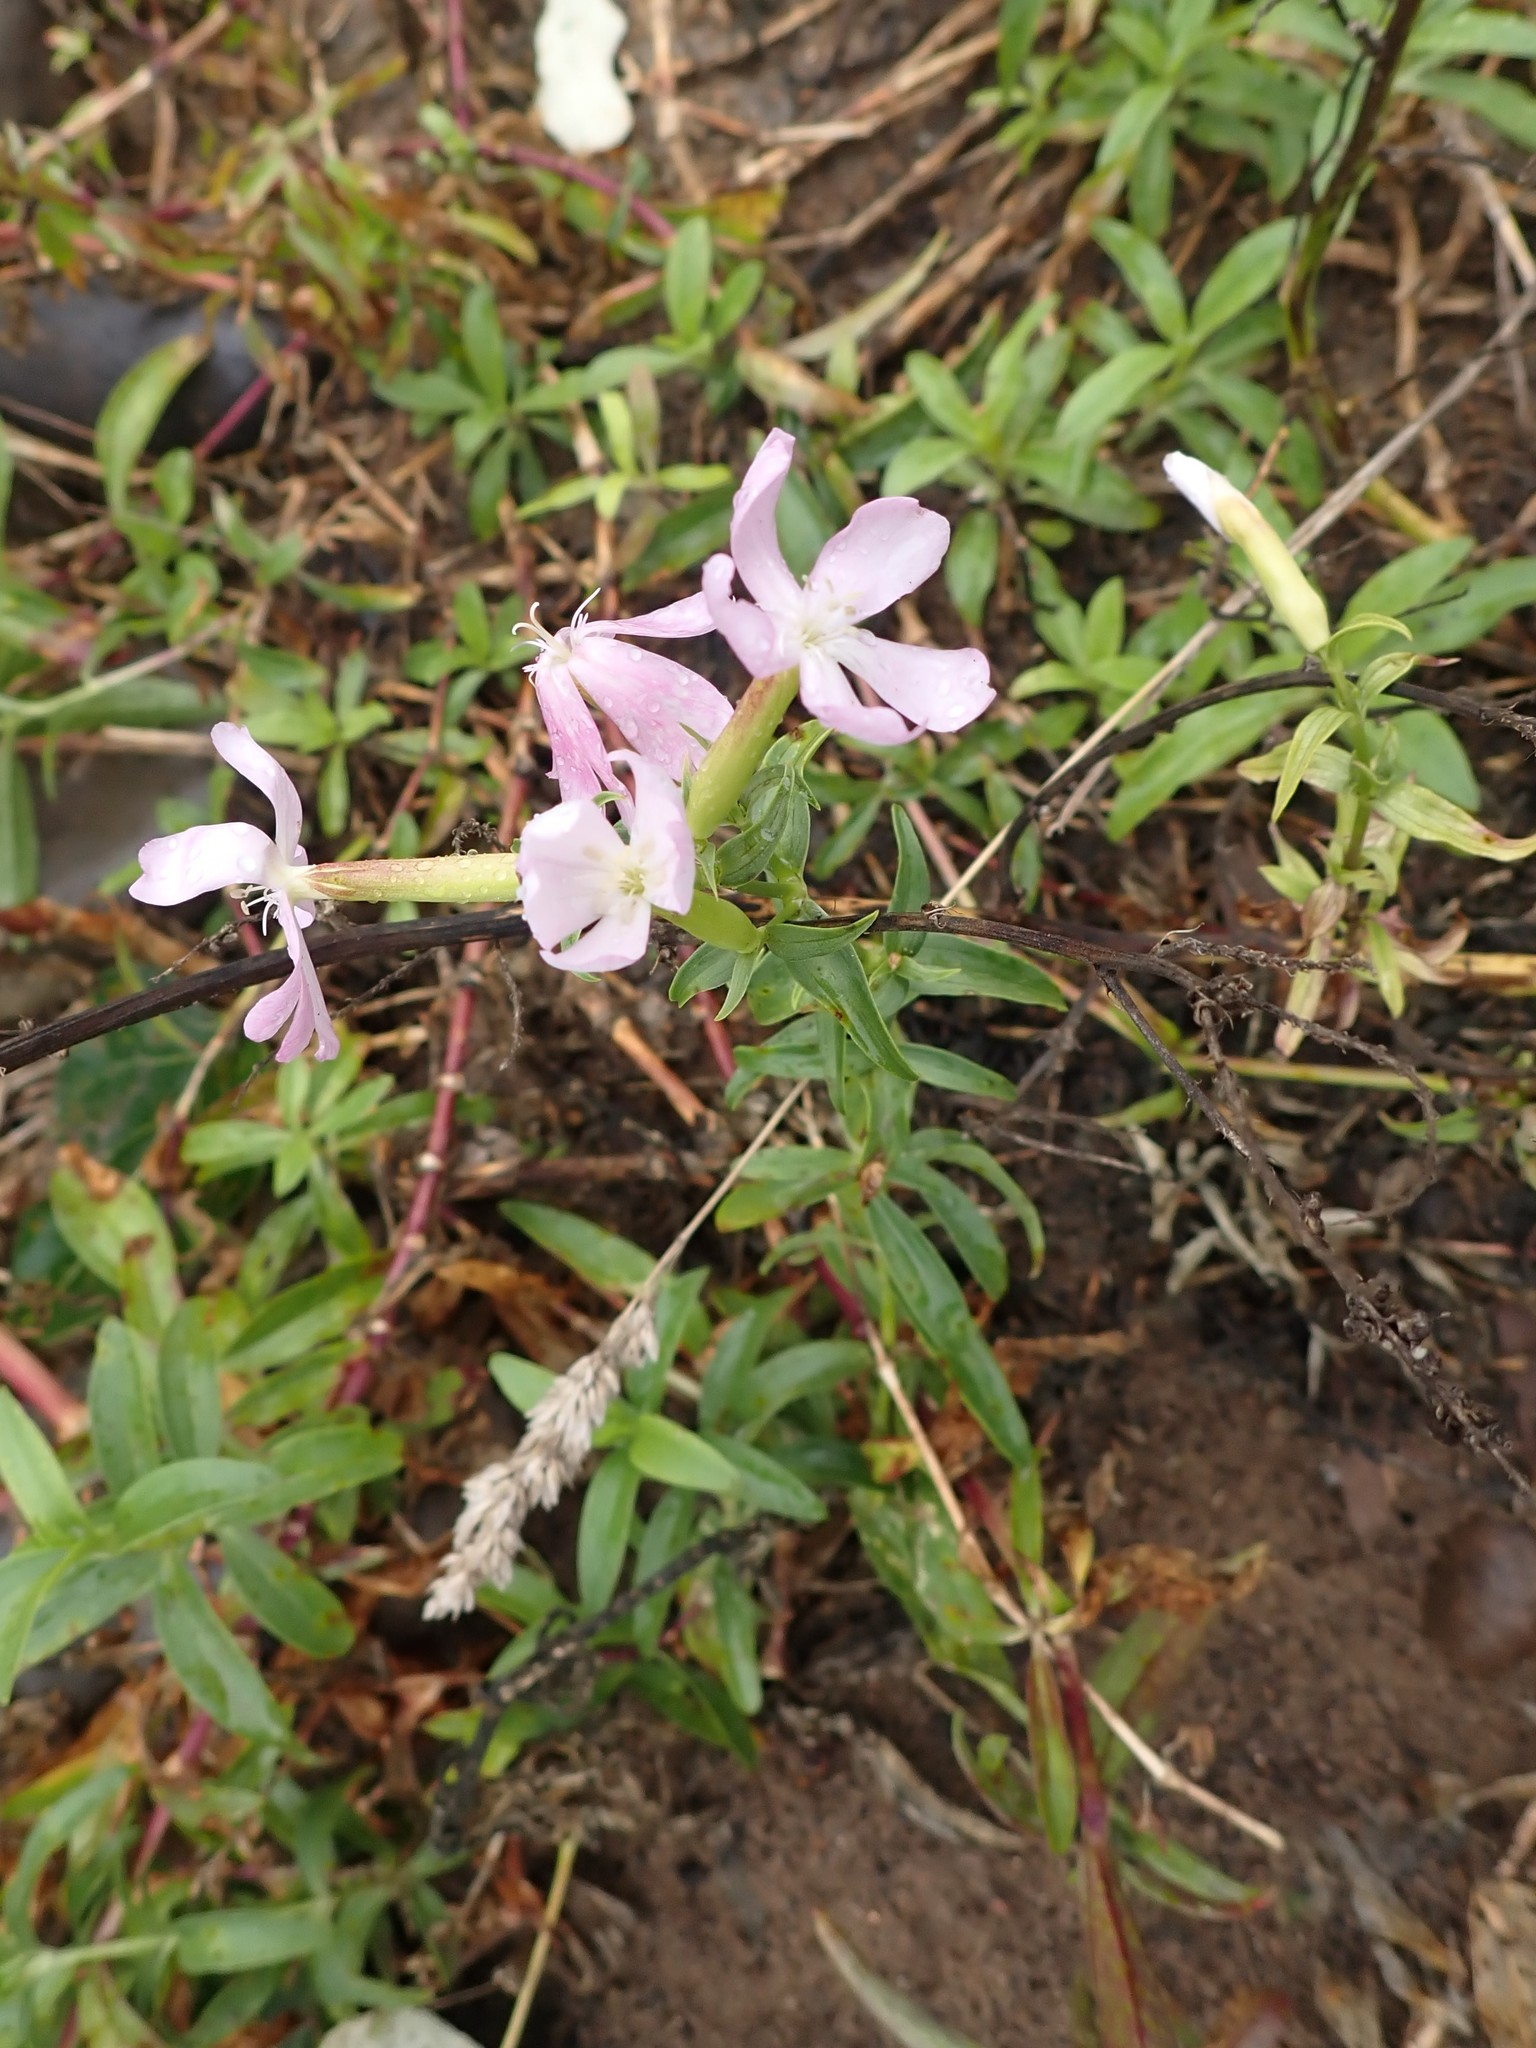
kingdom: Plantae
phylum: Tracheophyta
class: Magnoliopsida
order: Caryophyllales
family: Caryophyllaceae
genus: Saponaria
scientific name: Saponaria officinalis
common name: Soapwort
